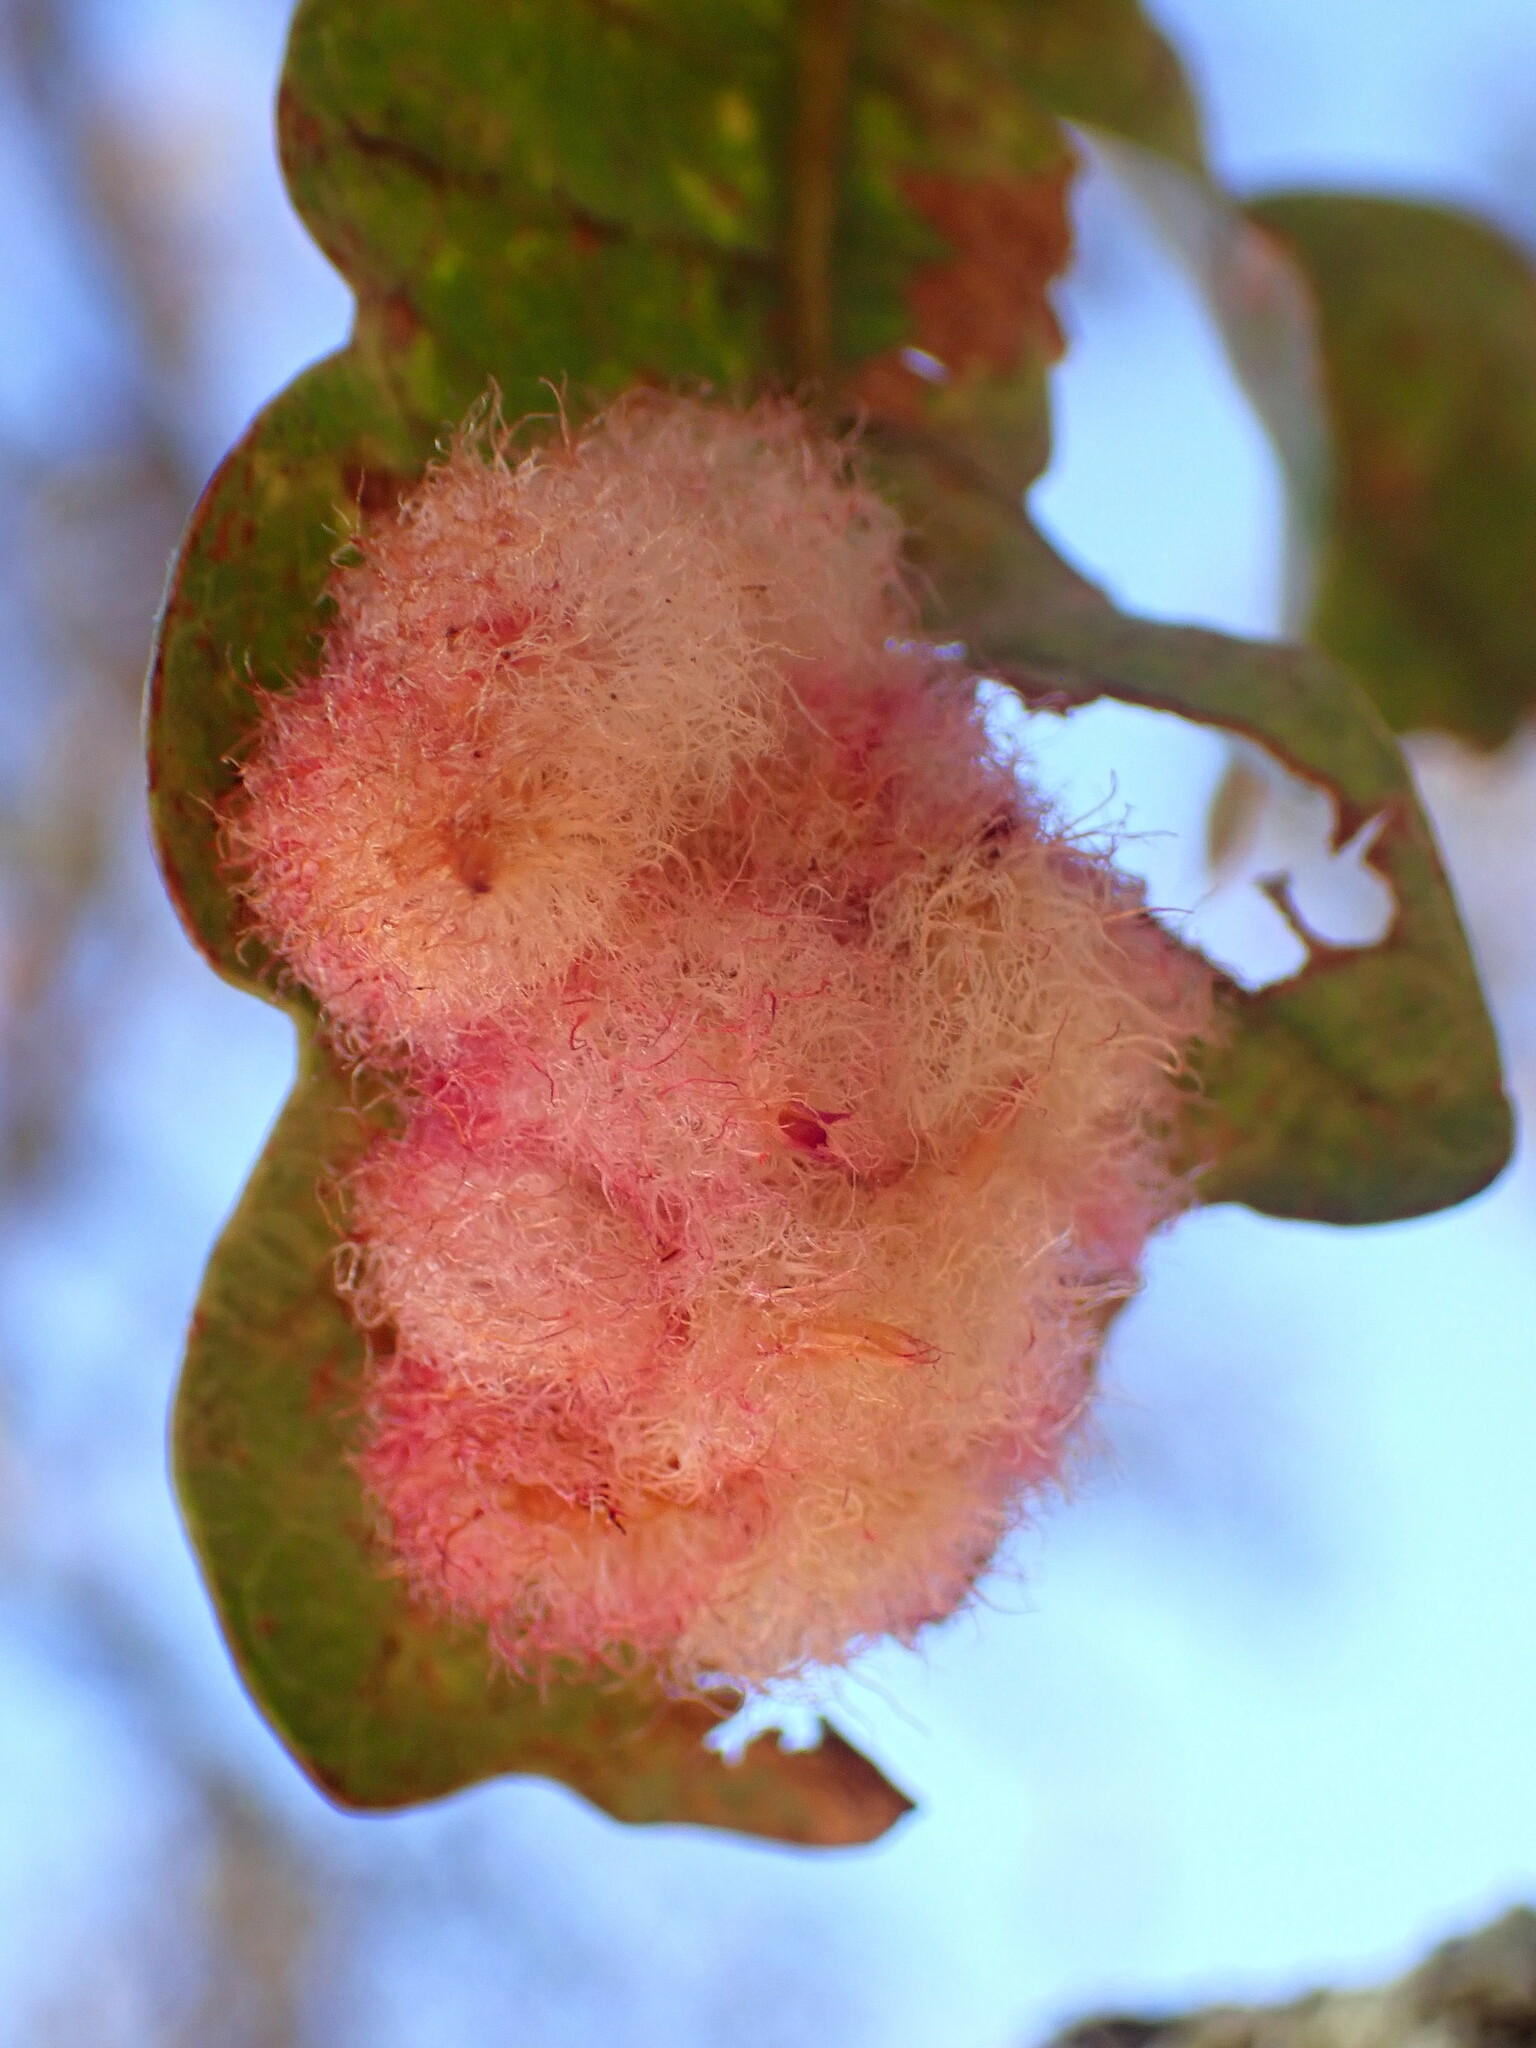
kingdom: Animalia
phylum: Arthropoda
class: Insecta
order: Hymenoptera
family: Cynipidae
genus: Andricus
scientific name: Andricus
